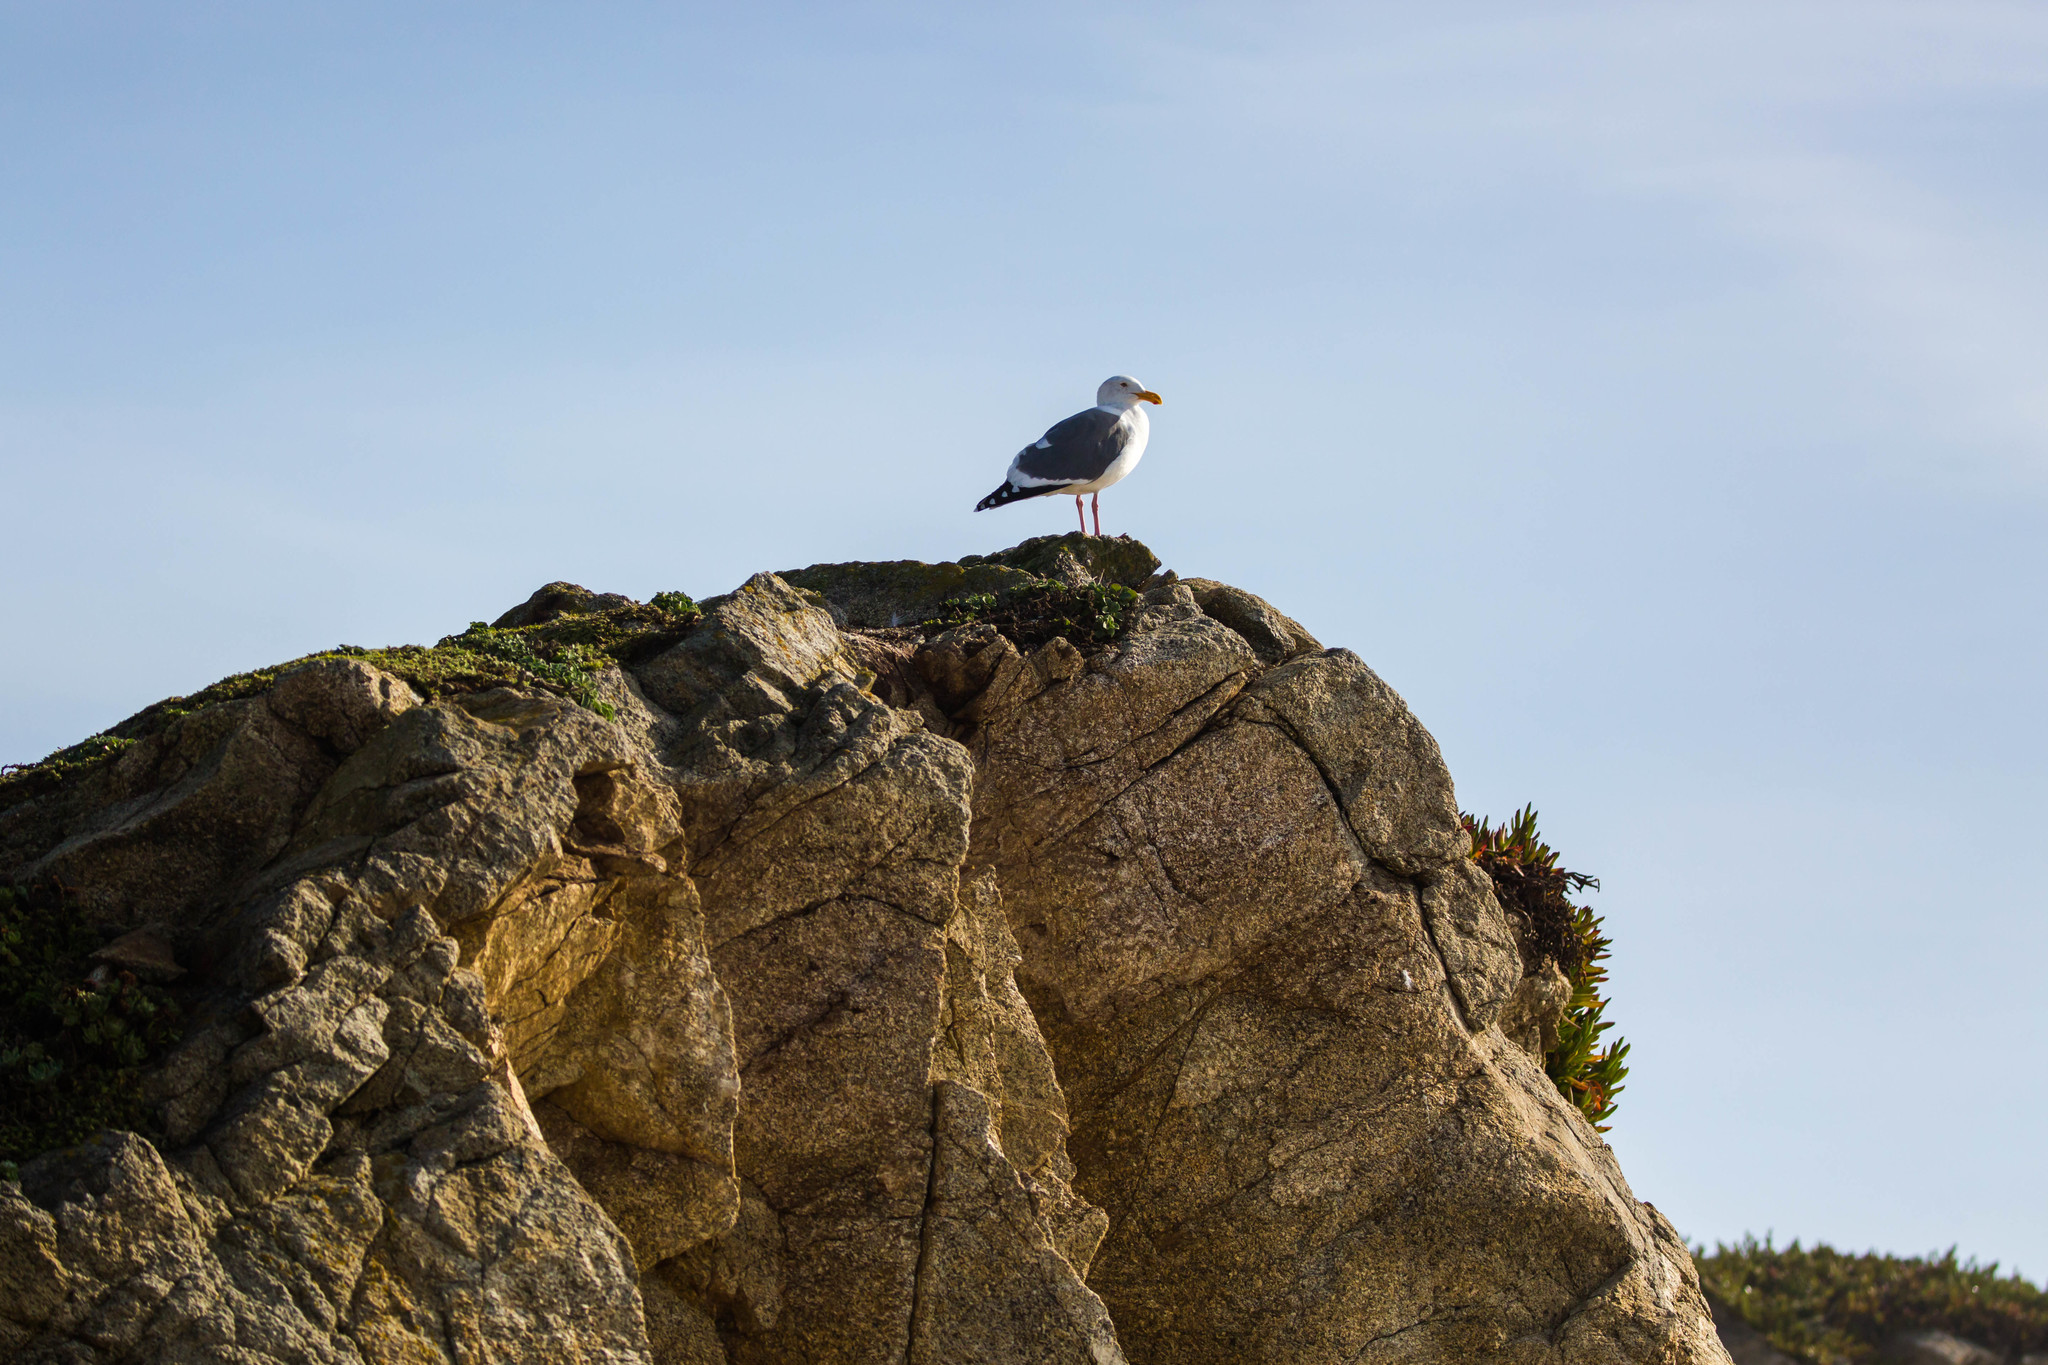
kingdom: Animalia
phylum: Chordata
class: Aves
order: Charadriiformes
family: Laridae
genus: Larus
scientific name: Larus occidentalis
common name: Western gull
